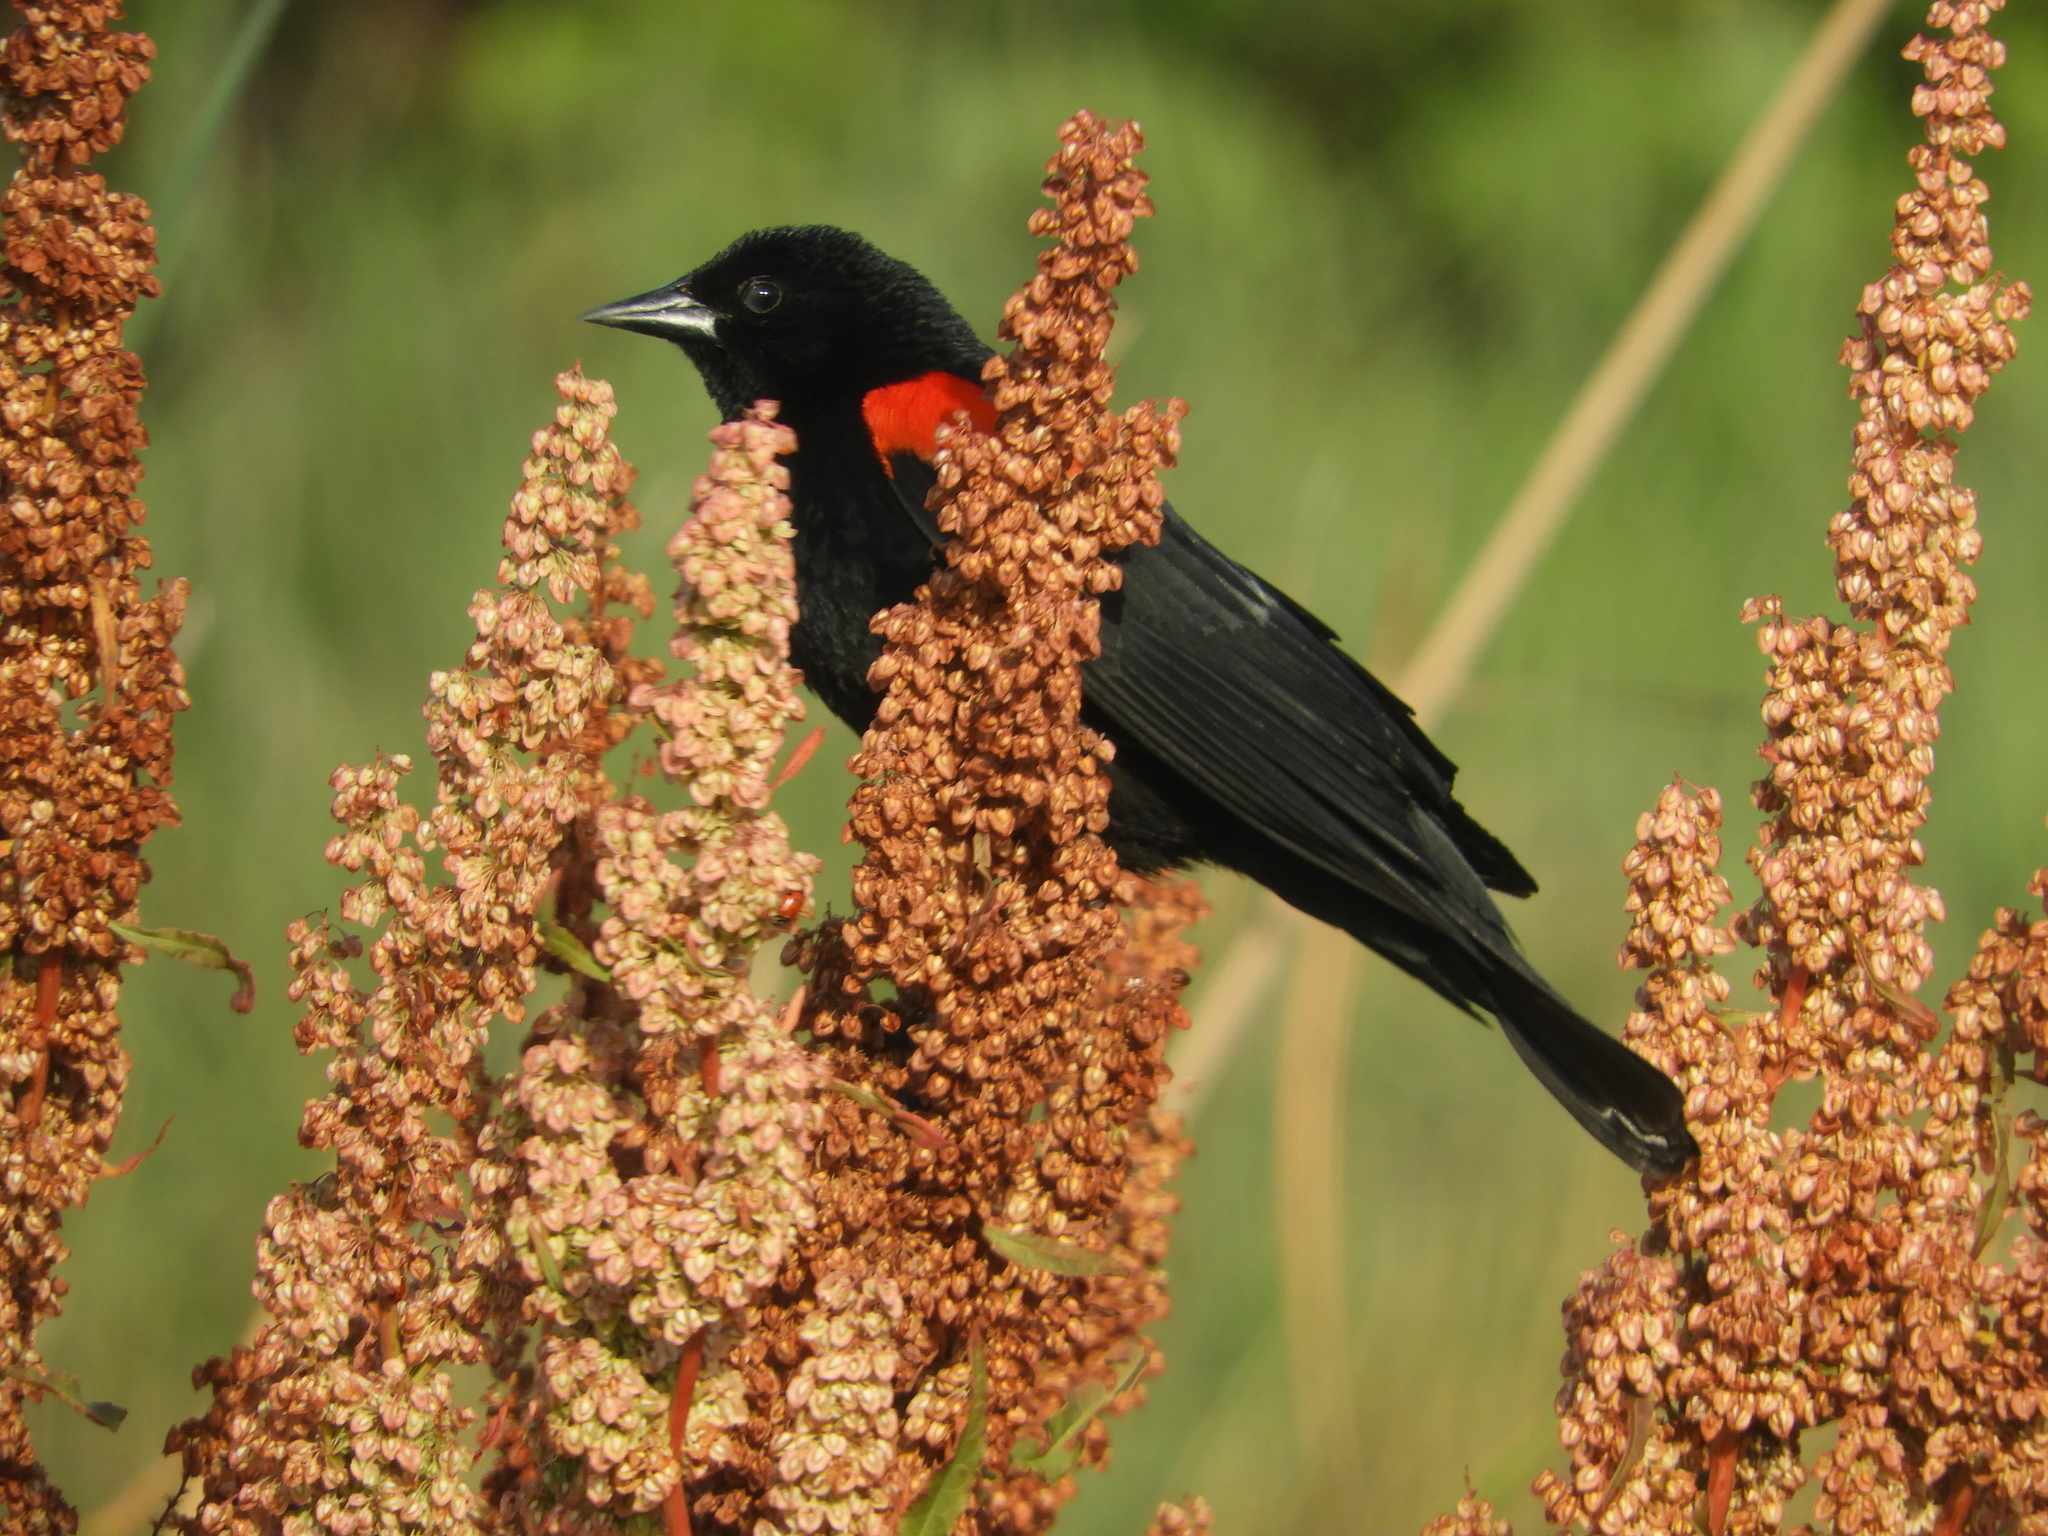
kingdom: Animalia
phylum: Chordata
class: Aves
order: Passeriformes
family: Icteridae
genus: Agelaius
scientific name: Agelaius phoeniceus
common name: Red-winged blackbird
